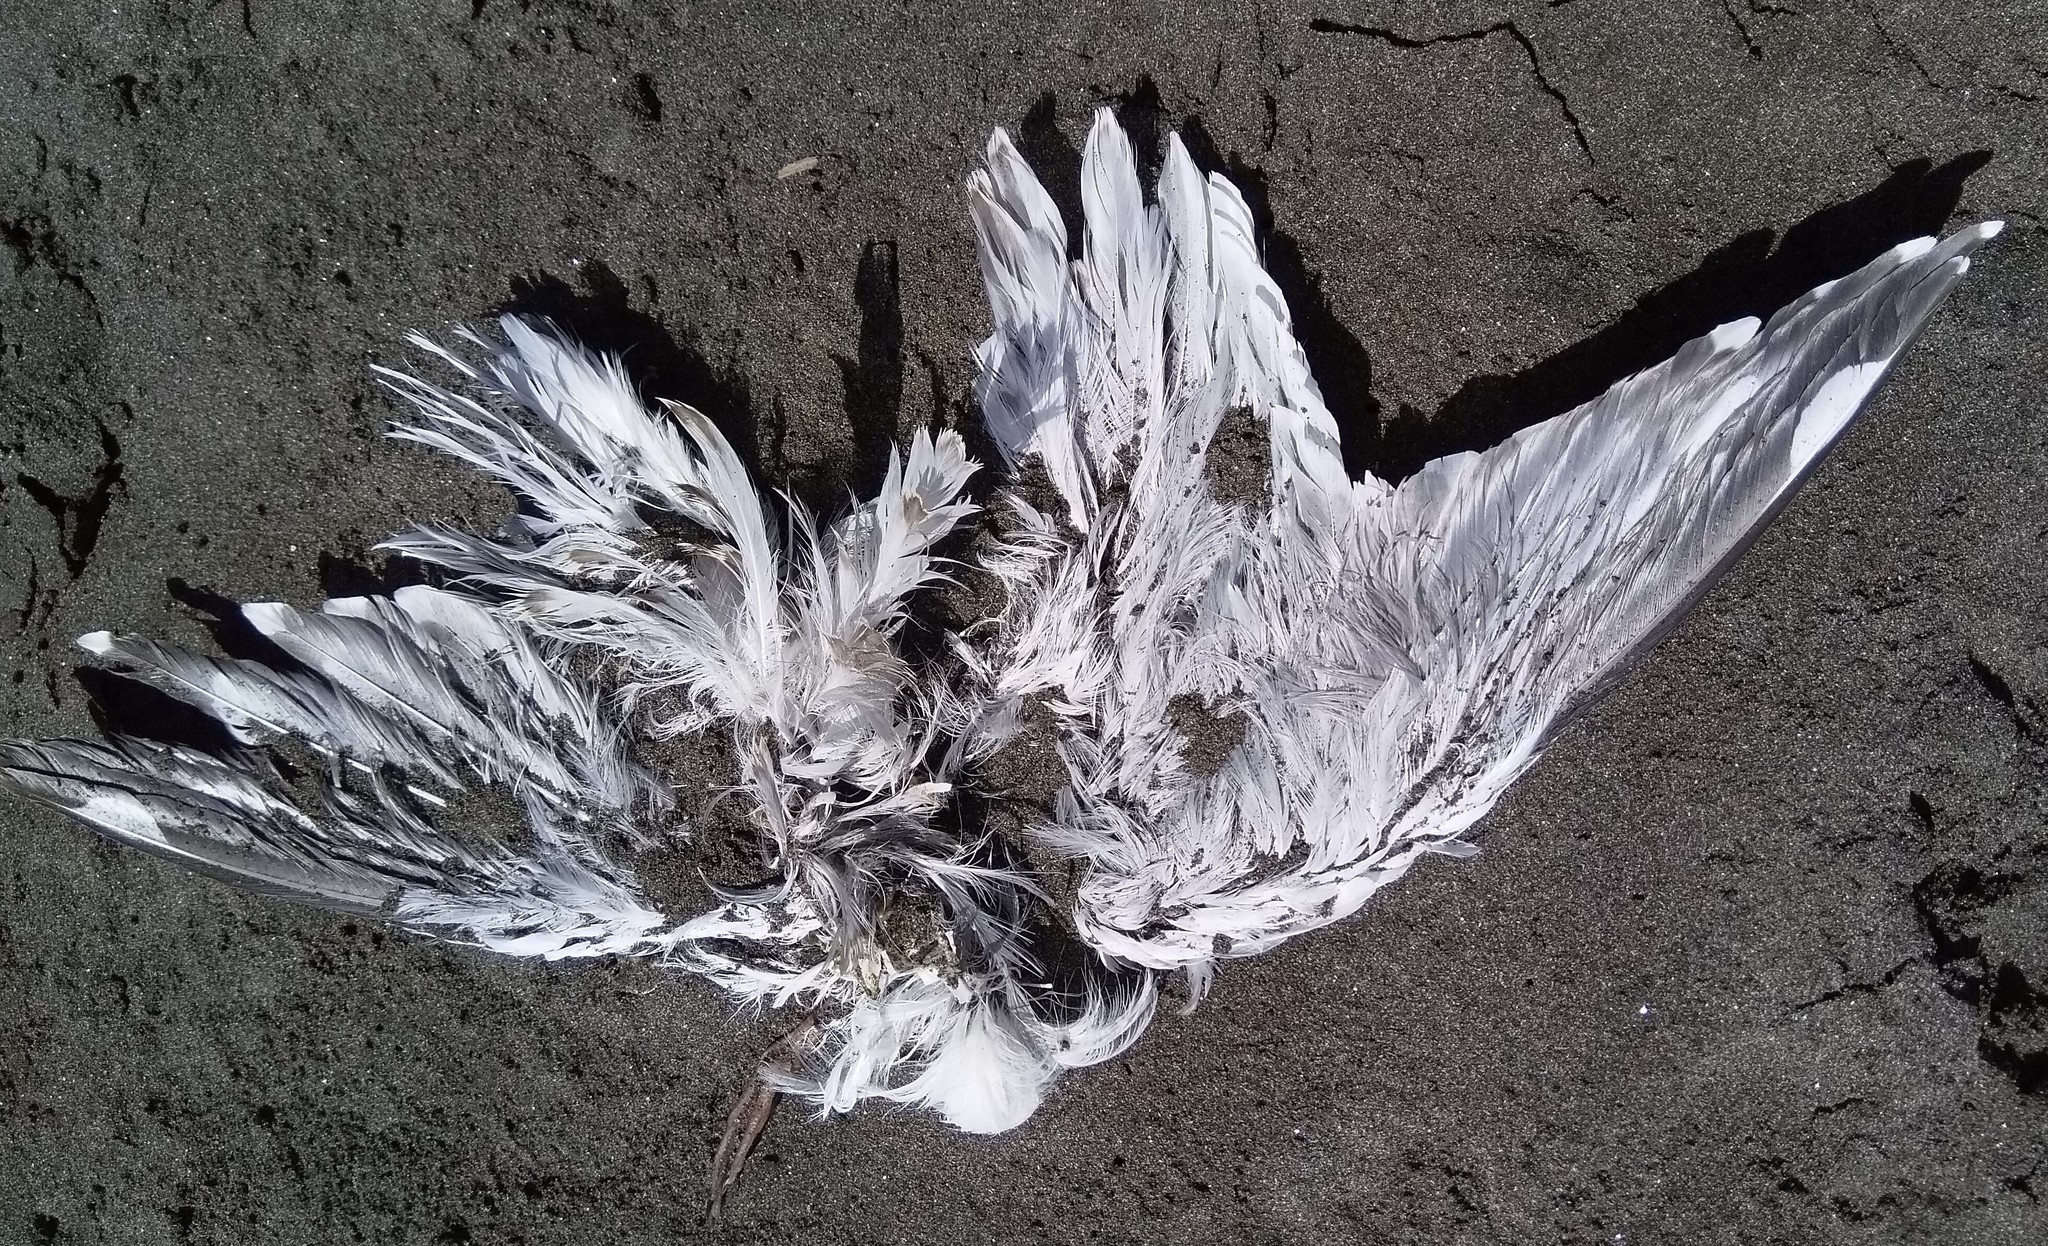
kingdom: Animalia
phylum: Chordata
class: Aves
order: Charadriiformes
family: Laridae
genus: Chroicocephalus
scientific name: Chroicocephalus novaehollandiae
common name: Silver gull
